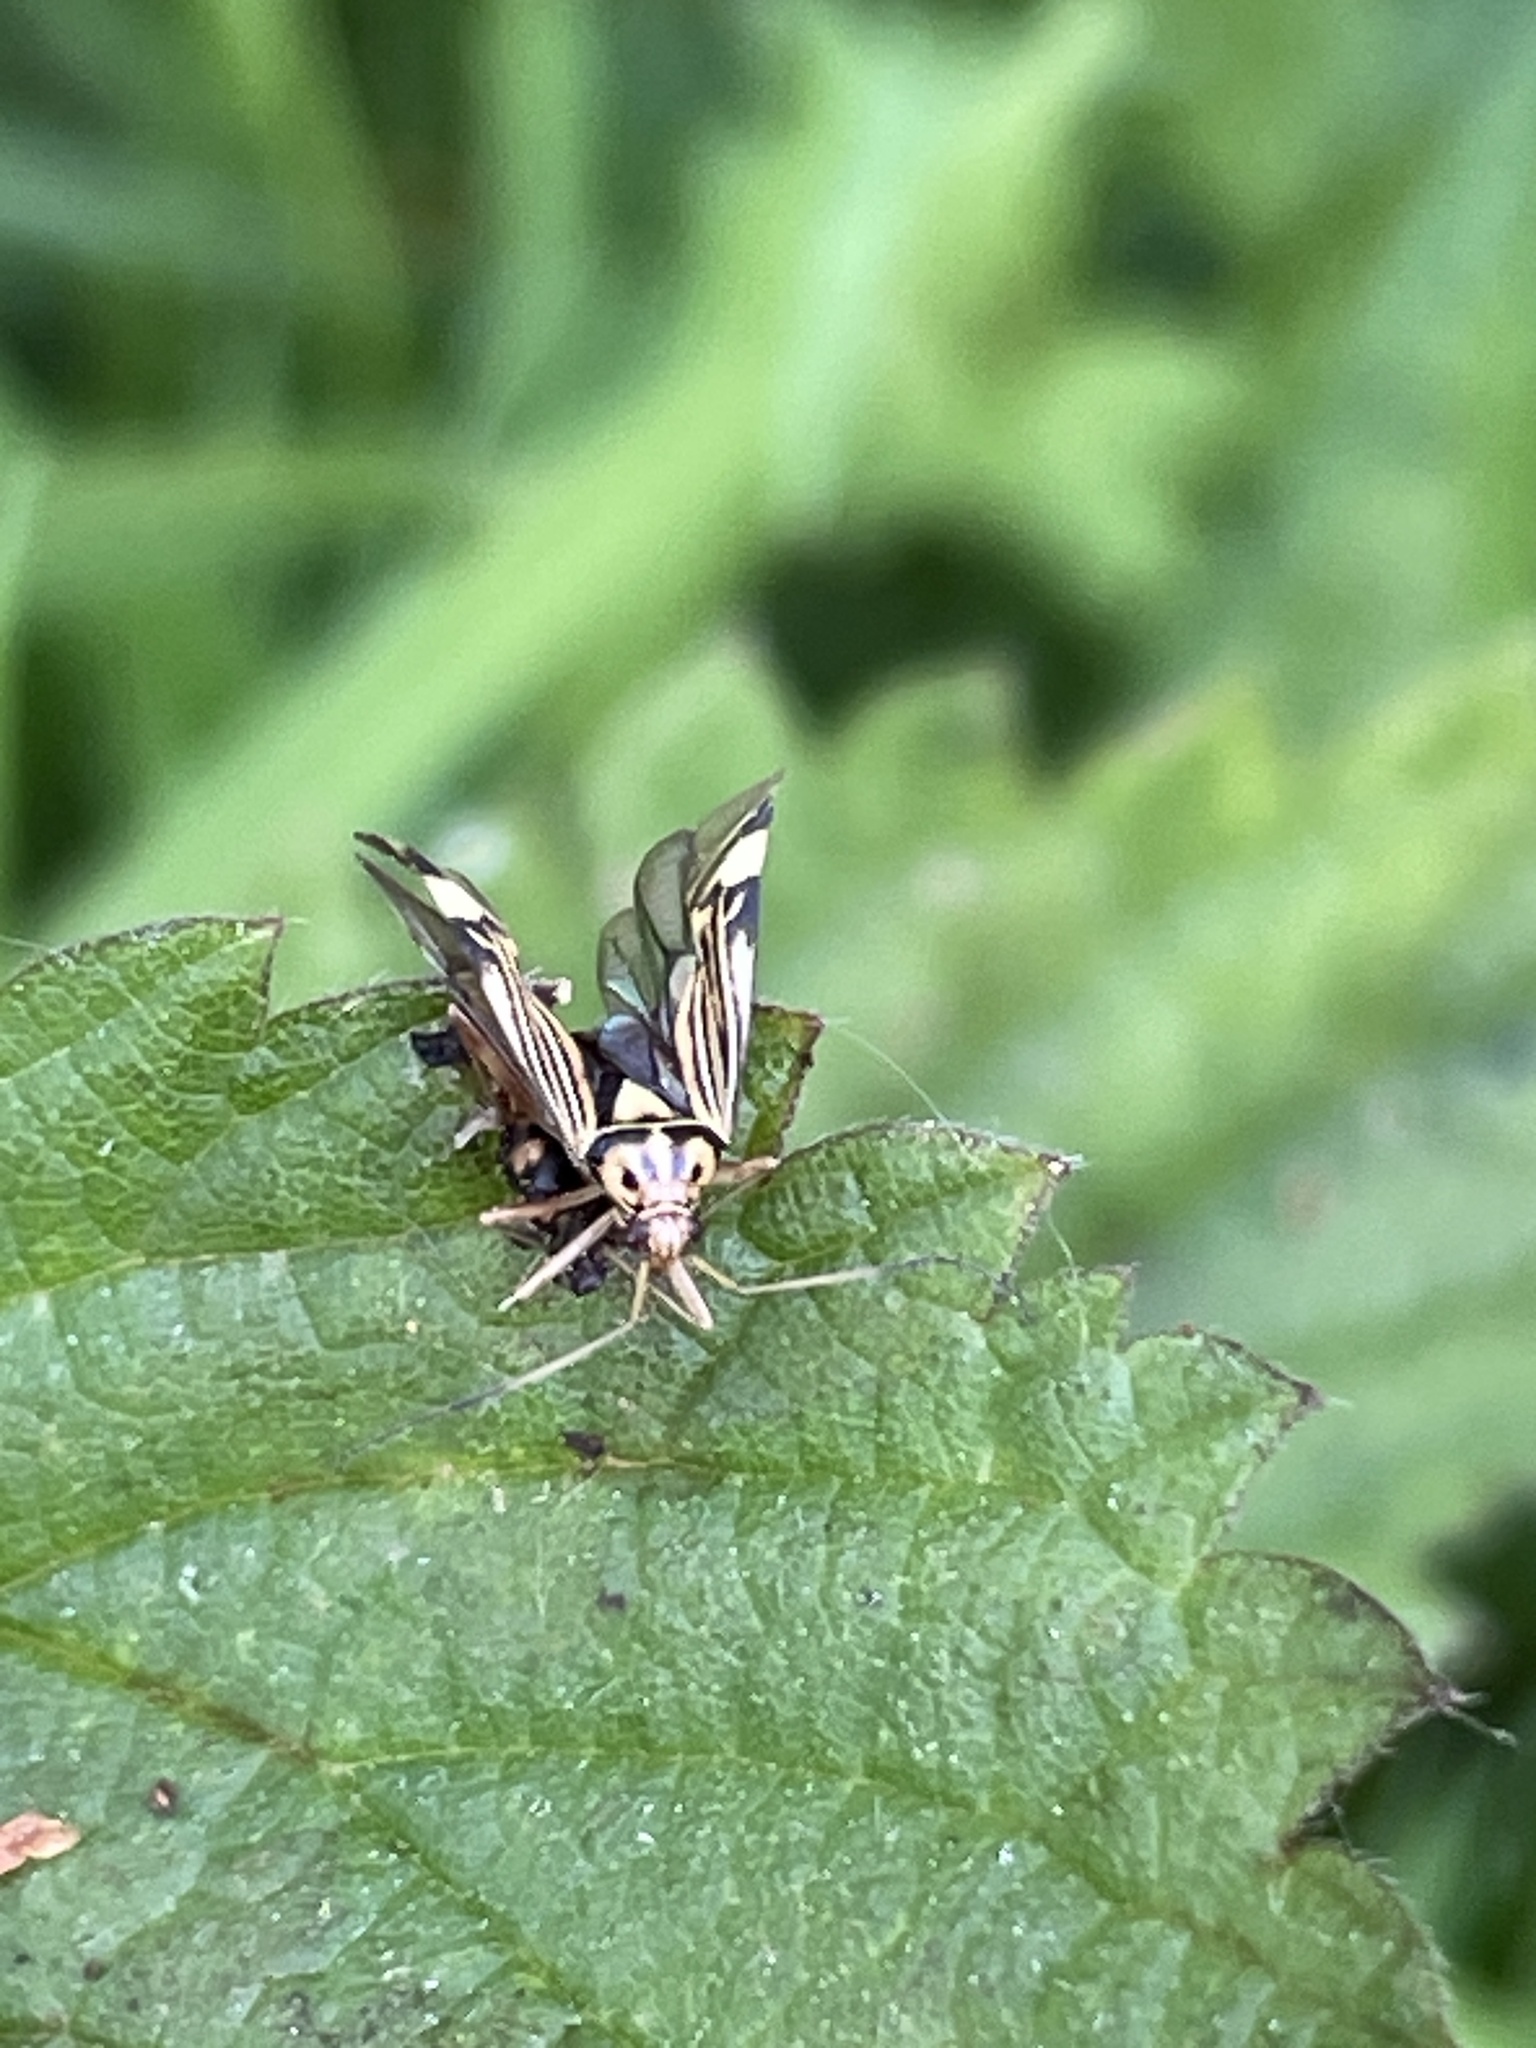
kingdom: Animalia
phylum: Arthropoda
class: Insecta
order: Hemiptera
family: Miridae
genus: Rhabdomiris
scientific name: Rhabdomiris striatellus
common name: Plant bug
